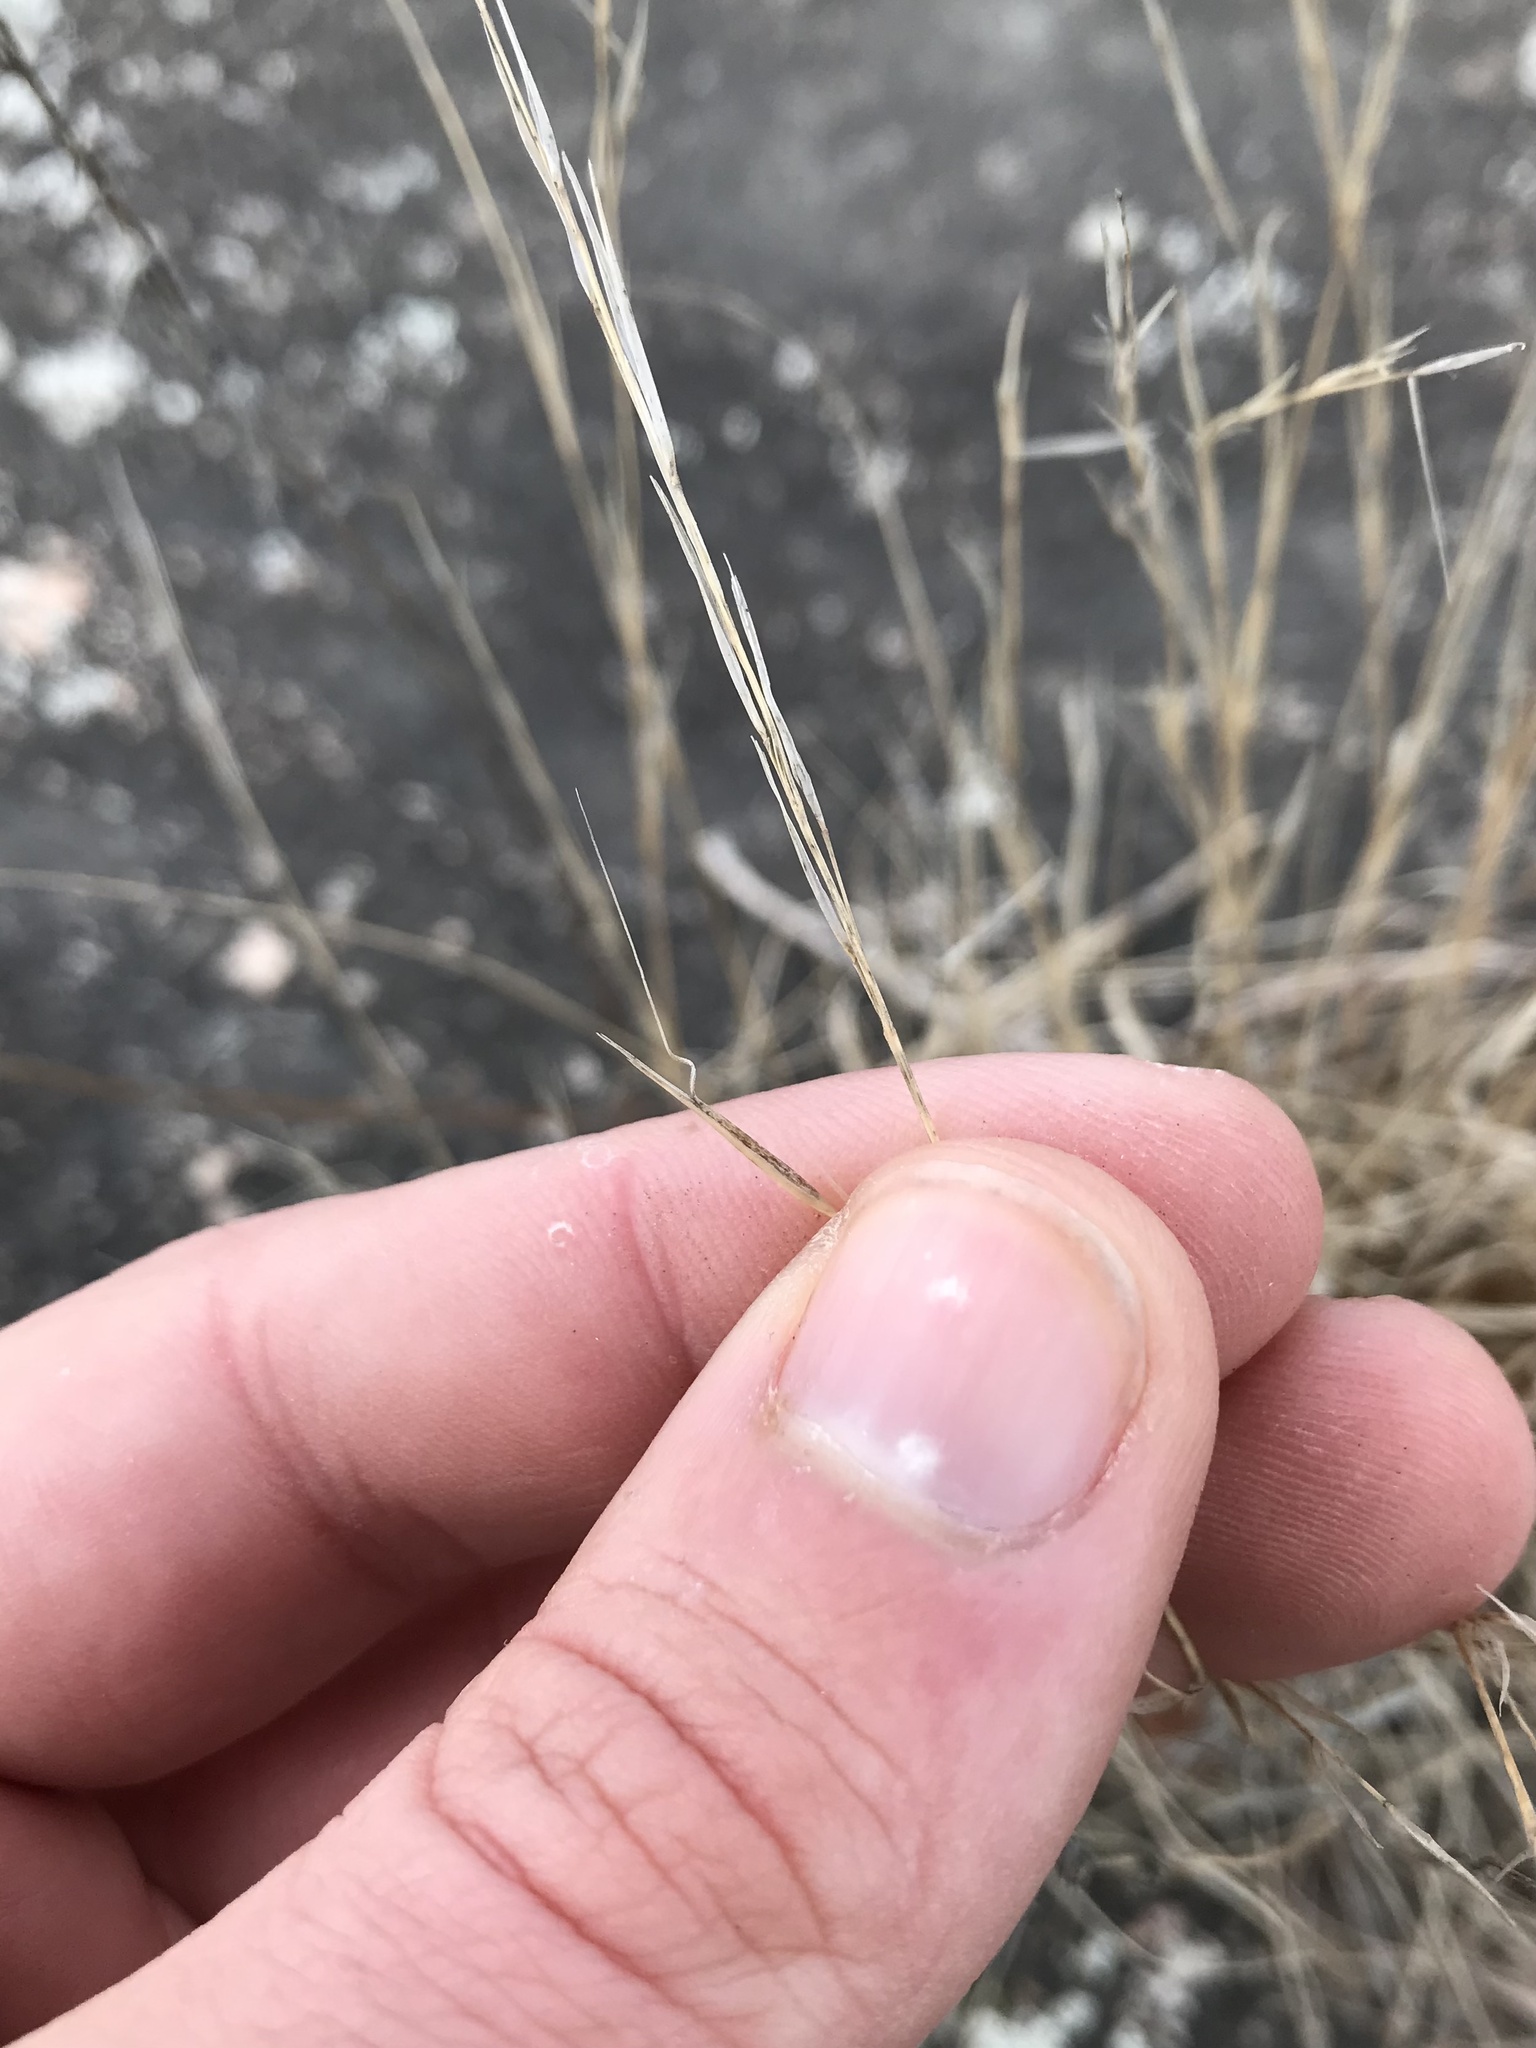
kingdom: Plantae
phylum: Tracheophyta
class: Liliopsida
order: Poales
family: Poaceae
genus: Aristida
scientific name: Aristida dichotoma
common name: Churchmouse three-awn
